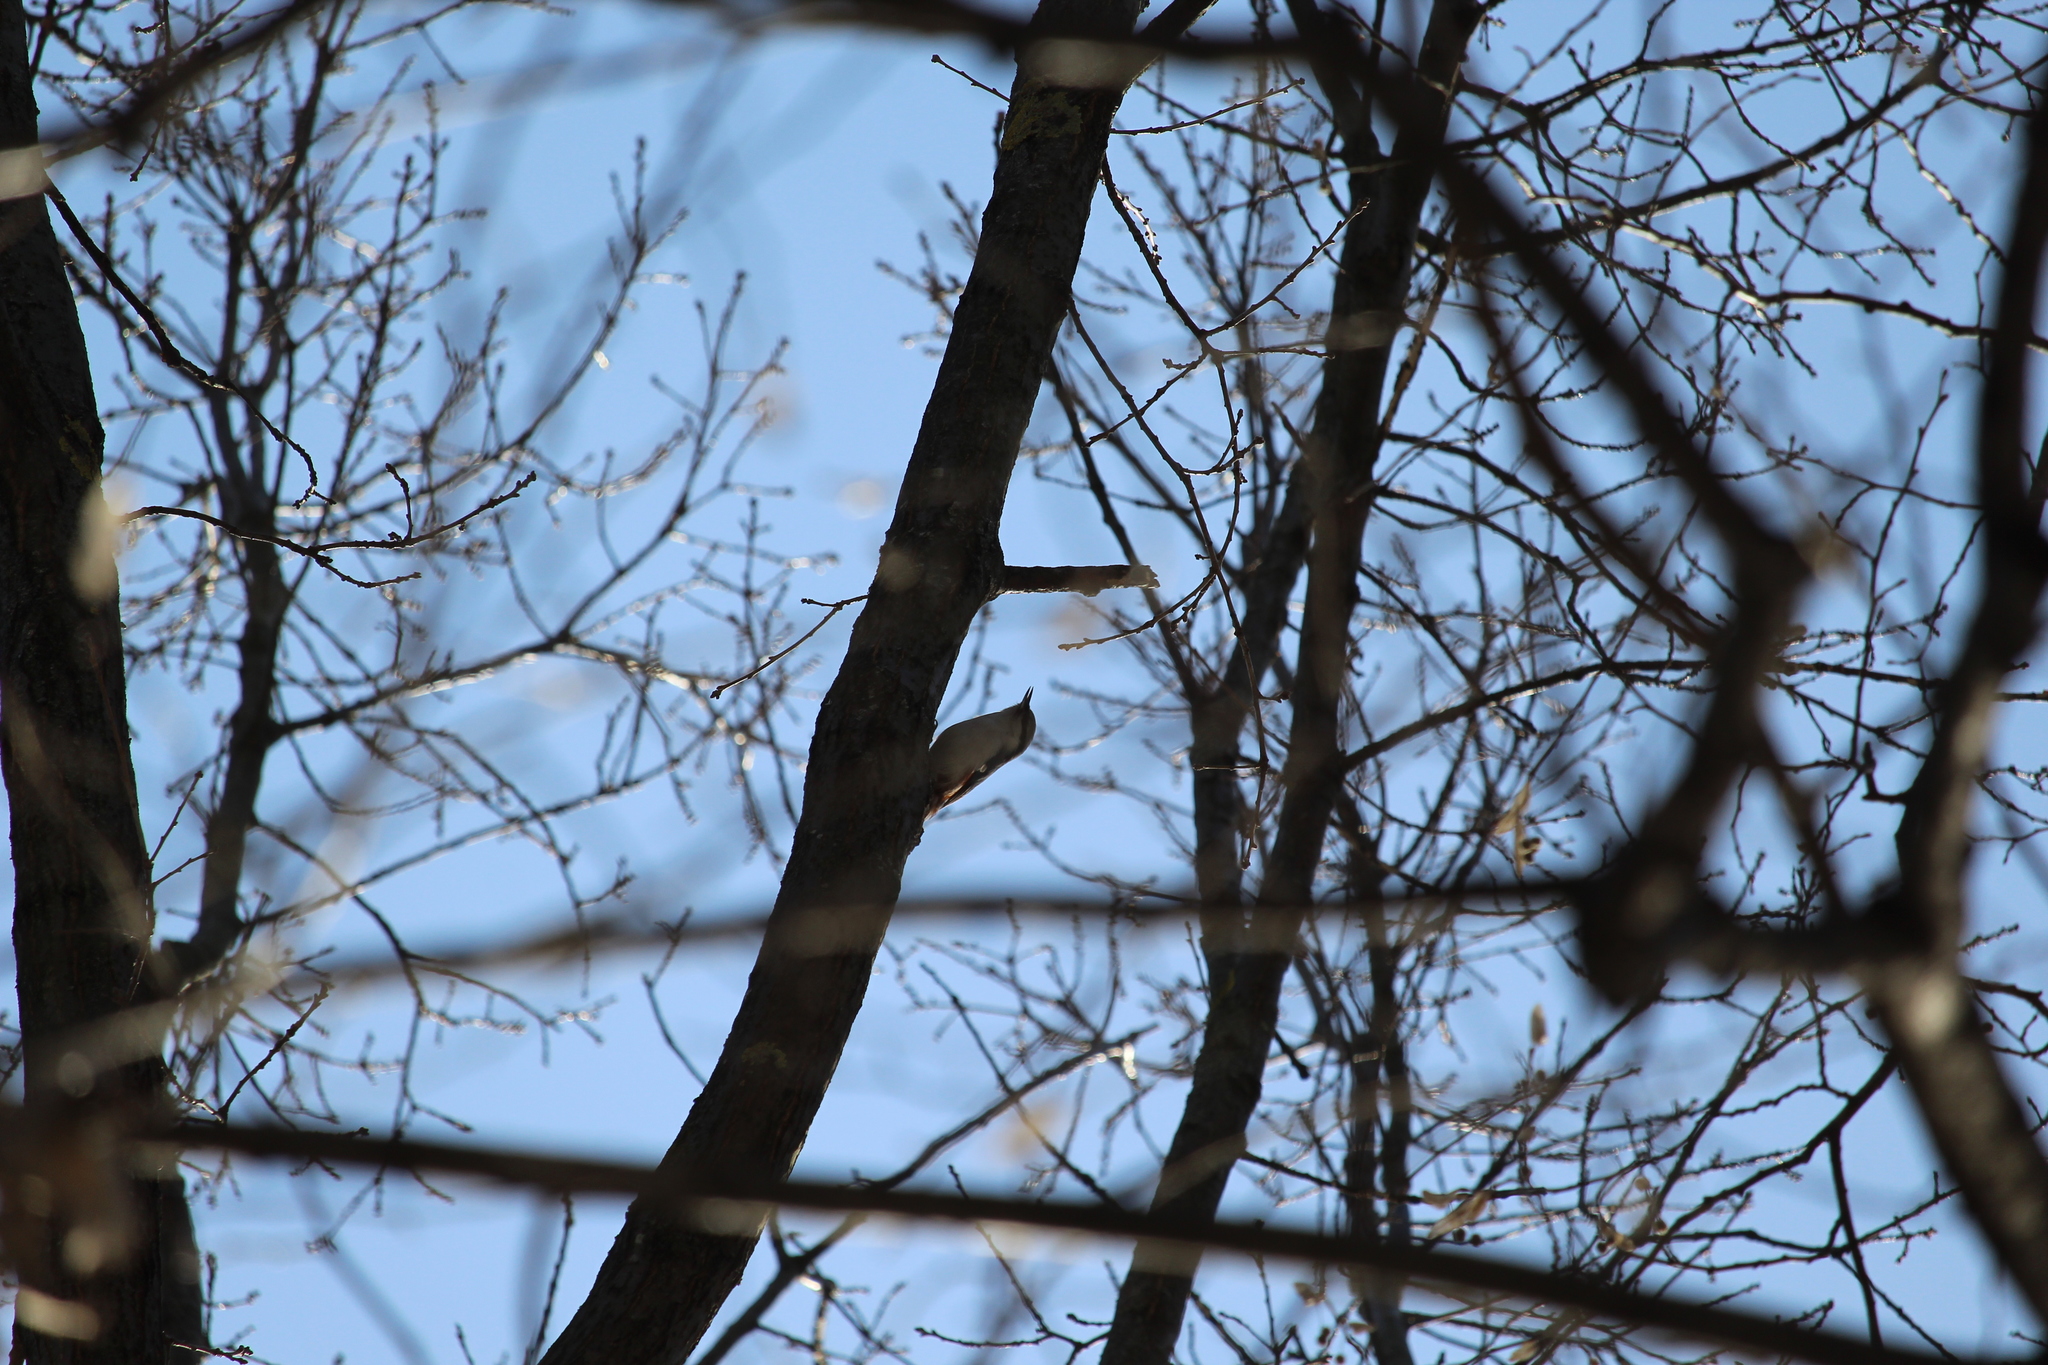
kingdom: Animalia
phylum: Chordata
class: Aves
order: Passeriformes
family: Sittidae
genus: Sitta
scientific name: Sitta europaea
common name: Eurasian nuthatch
